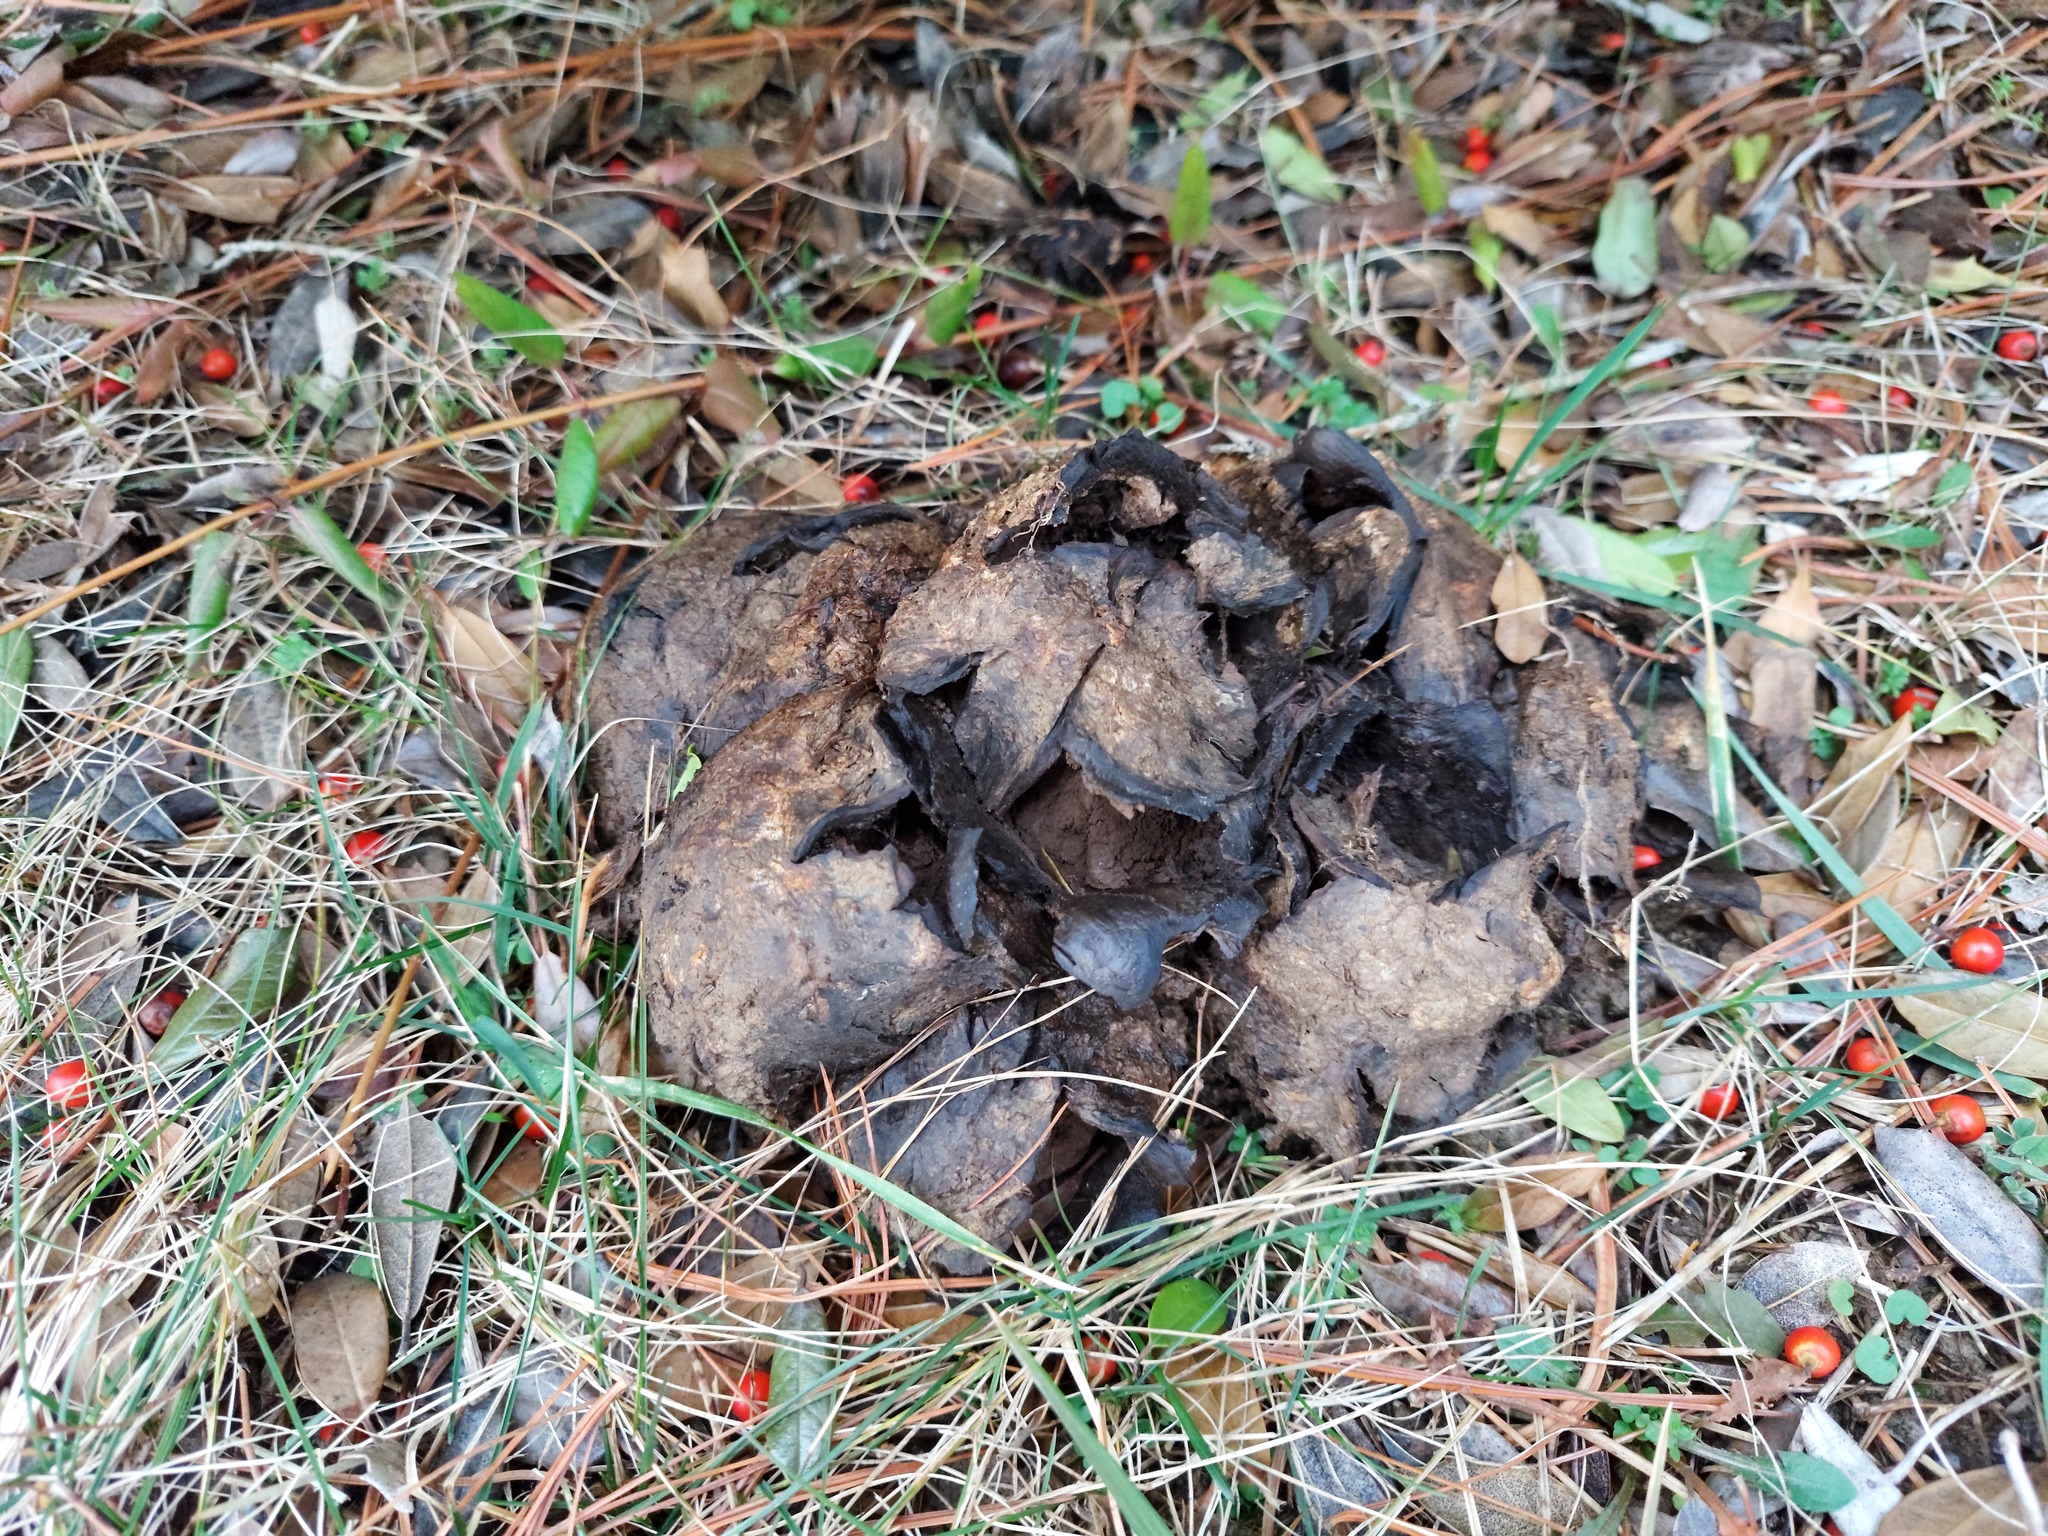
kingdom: Fungi
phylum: Basidiomycota
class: Agaricomycetes
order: Boletales
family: Sclerodermataceae
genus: Scleroderma
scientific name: Scleroderma polyrhizum
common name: Many-rooted earthball
